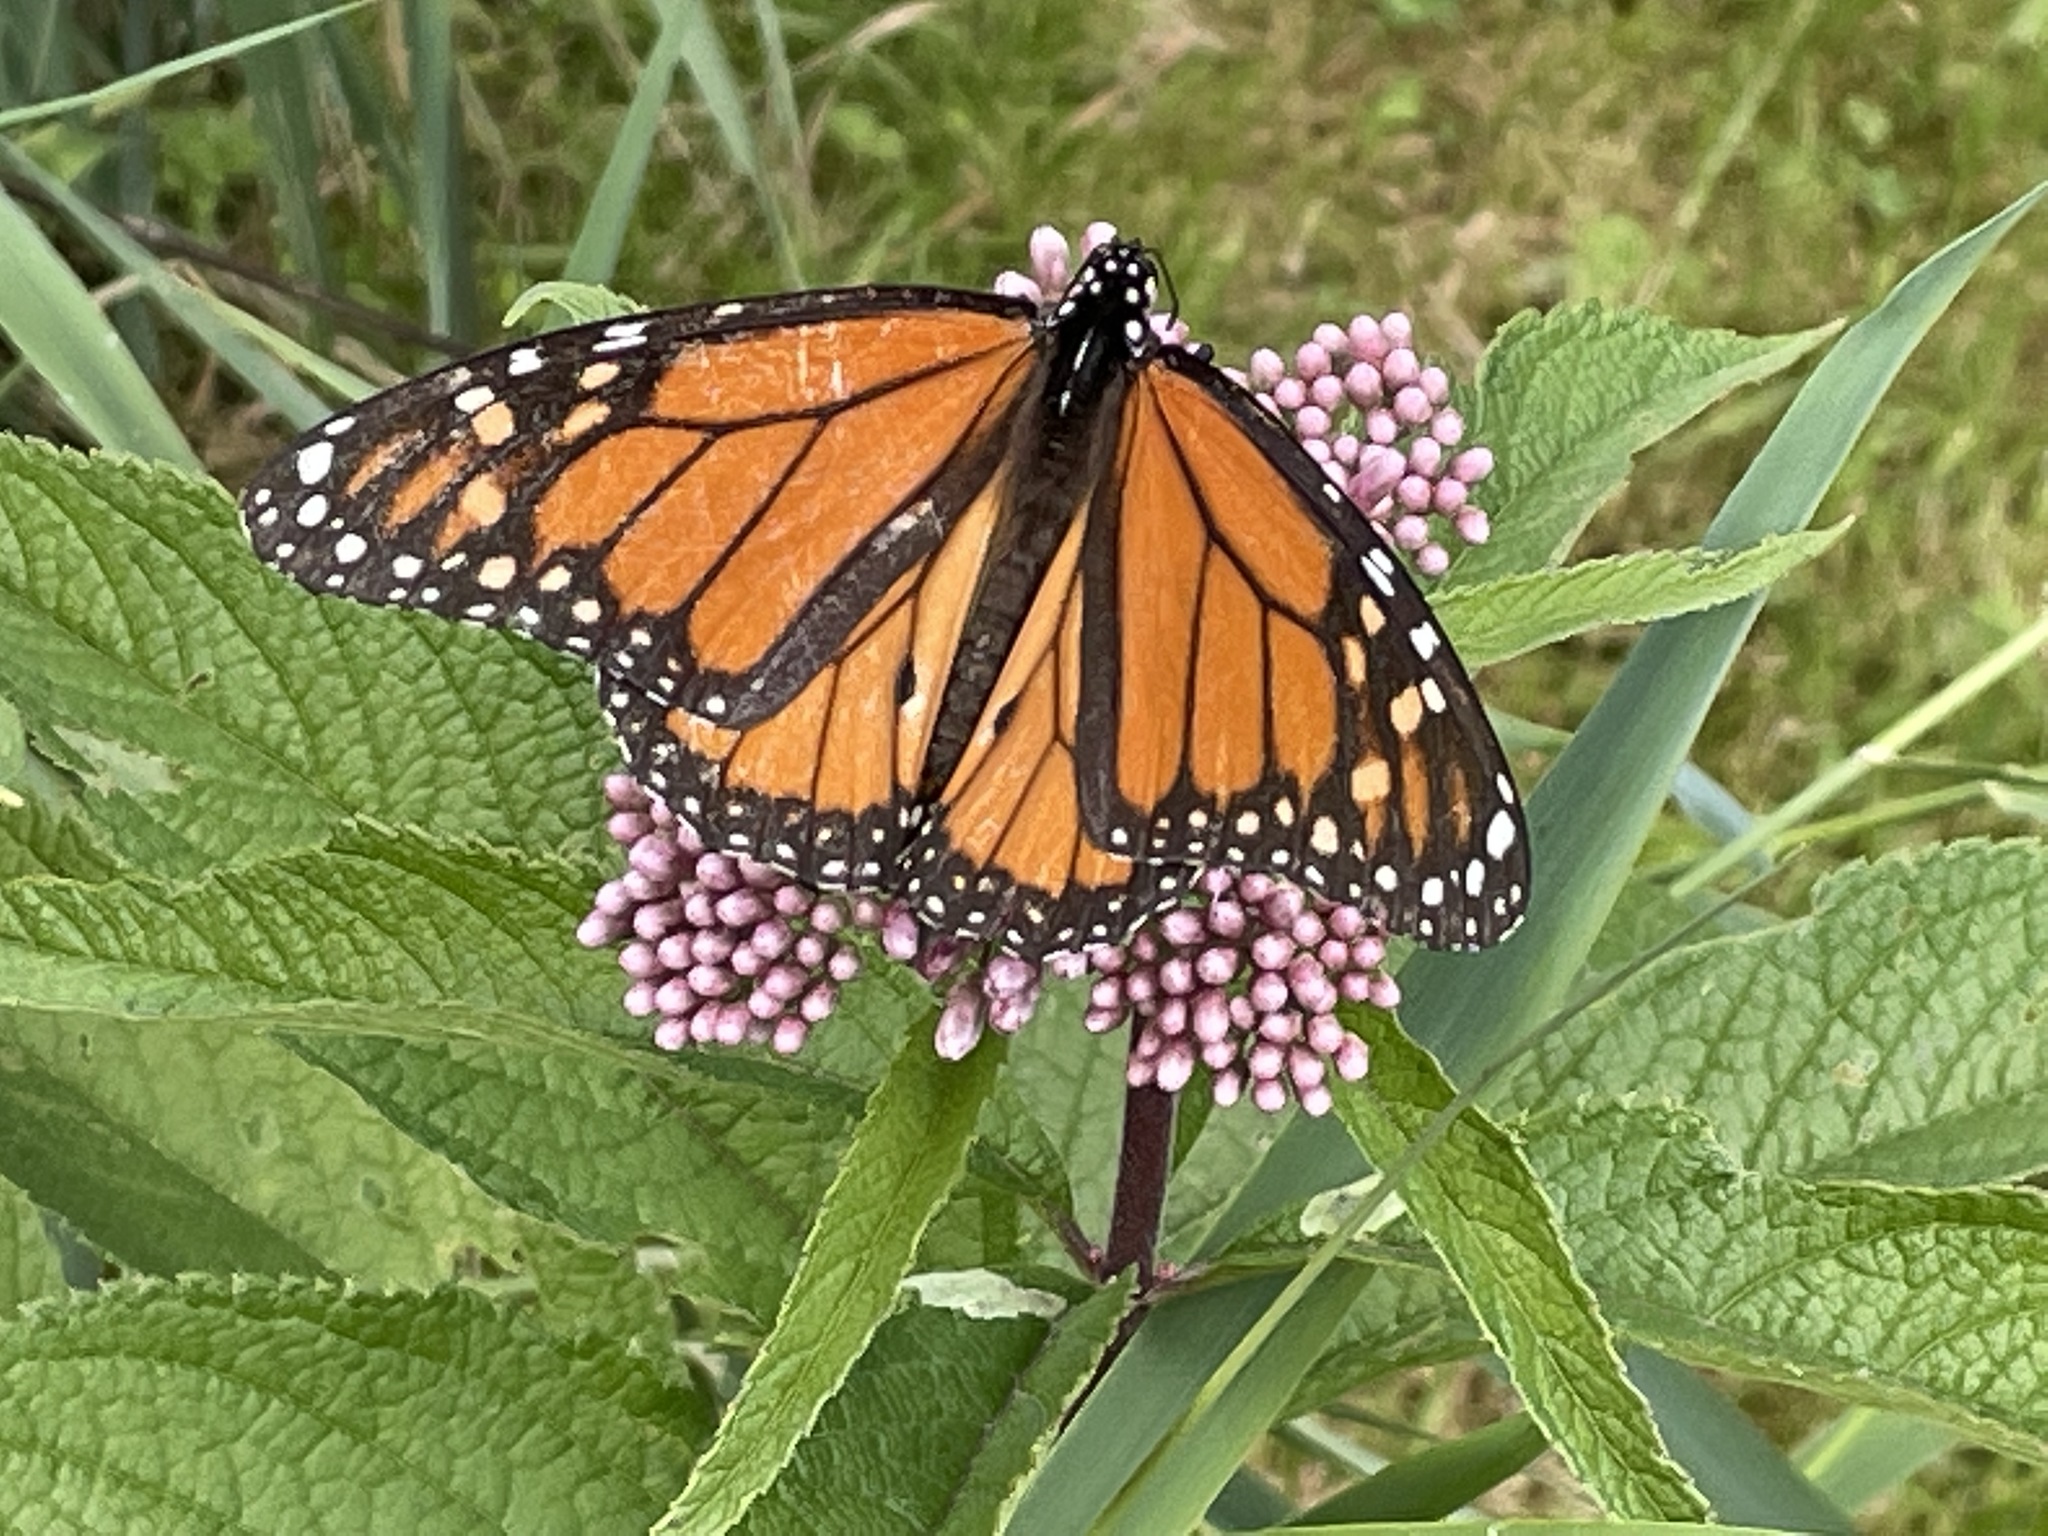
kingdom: Animalia
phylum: Arthropoda
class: Insecta
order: Lepidoptera
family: Nymphalidae
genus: Danaus
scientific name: Danaus plexippus
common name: Monarch
